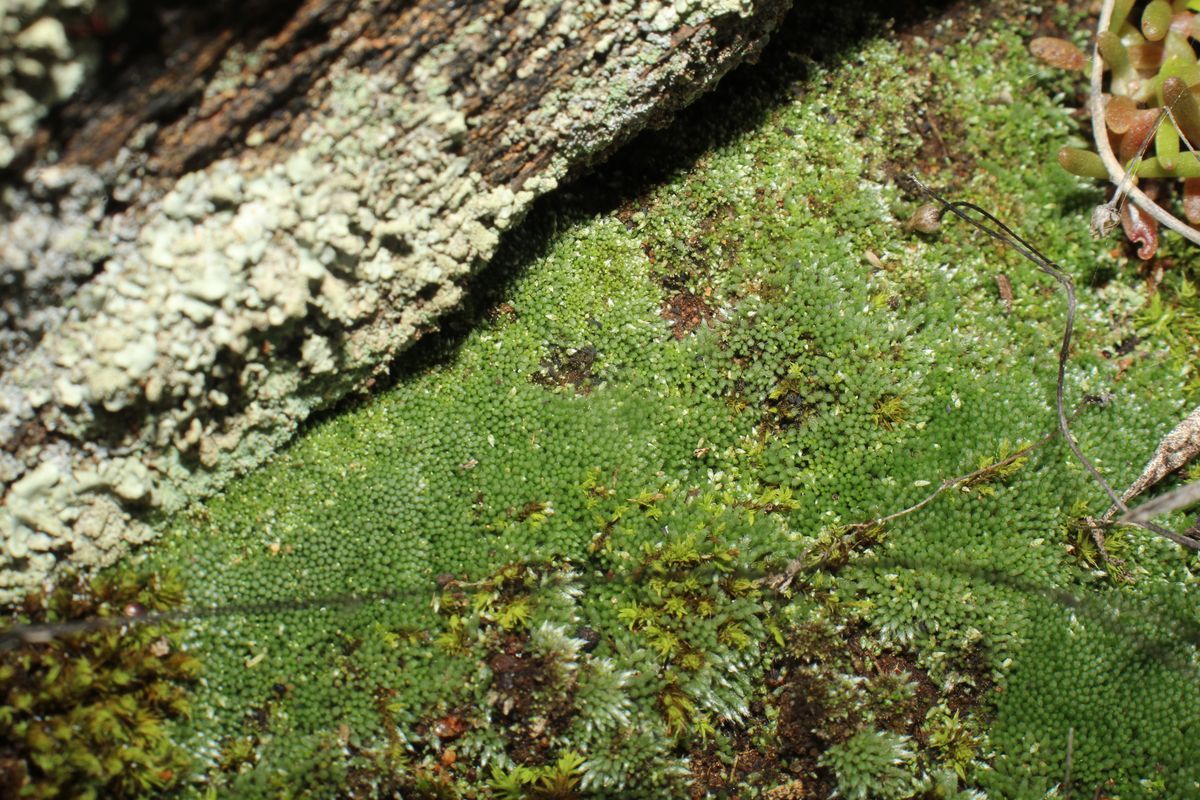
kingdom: Plantae
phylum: Bryophyta
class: Bryopsida
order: Bryales
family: Bryaceae
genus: Bryum
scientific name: Bryum argenteum
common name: Silver-moss
